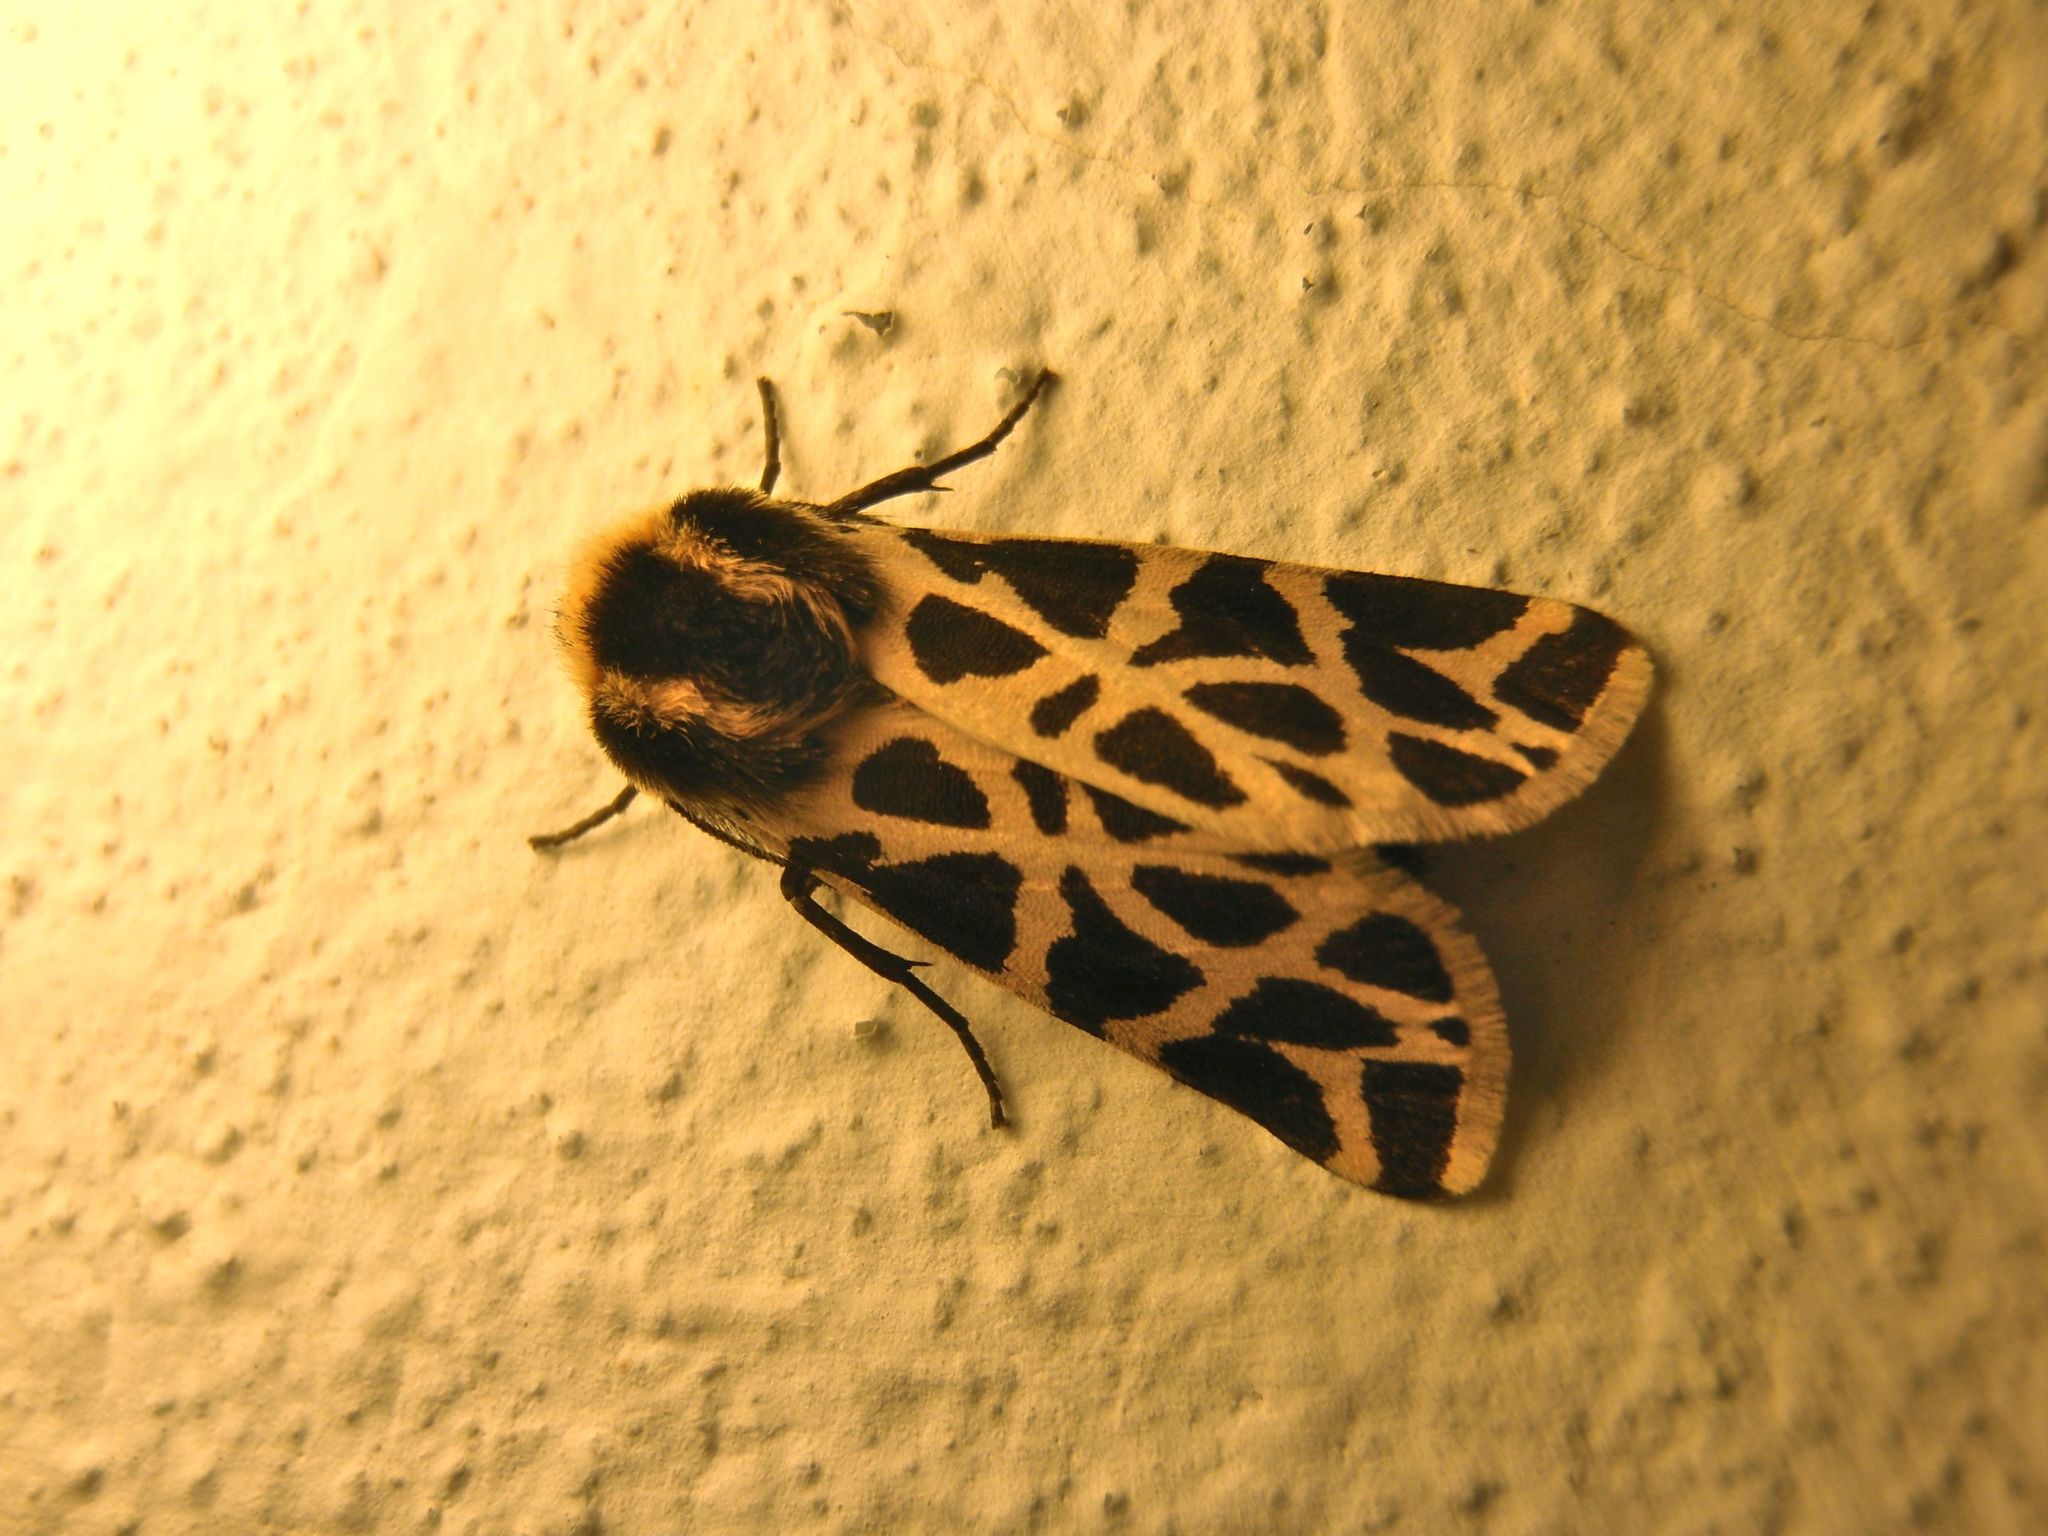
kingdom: Animalia
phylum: Arthropoda
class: Insecta
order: Lepidoptera
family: Erebidae
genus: Cymbalophora
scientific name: Cymbalophora pudica
